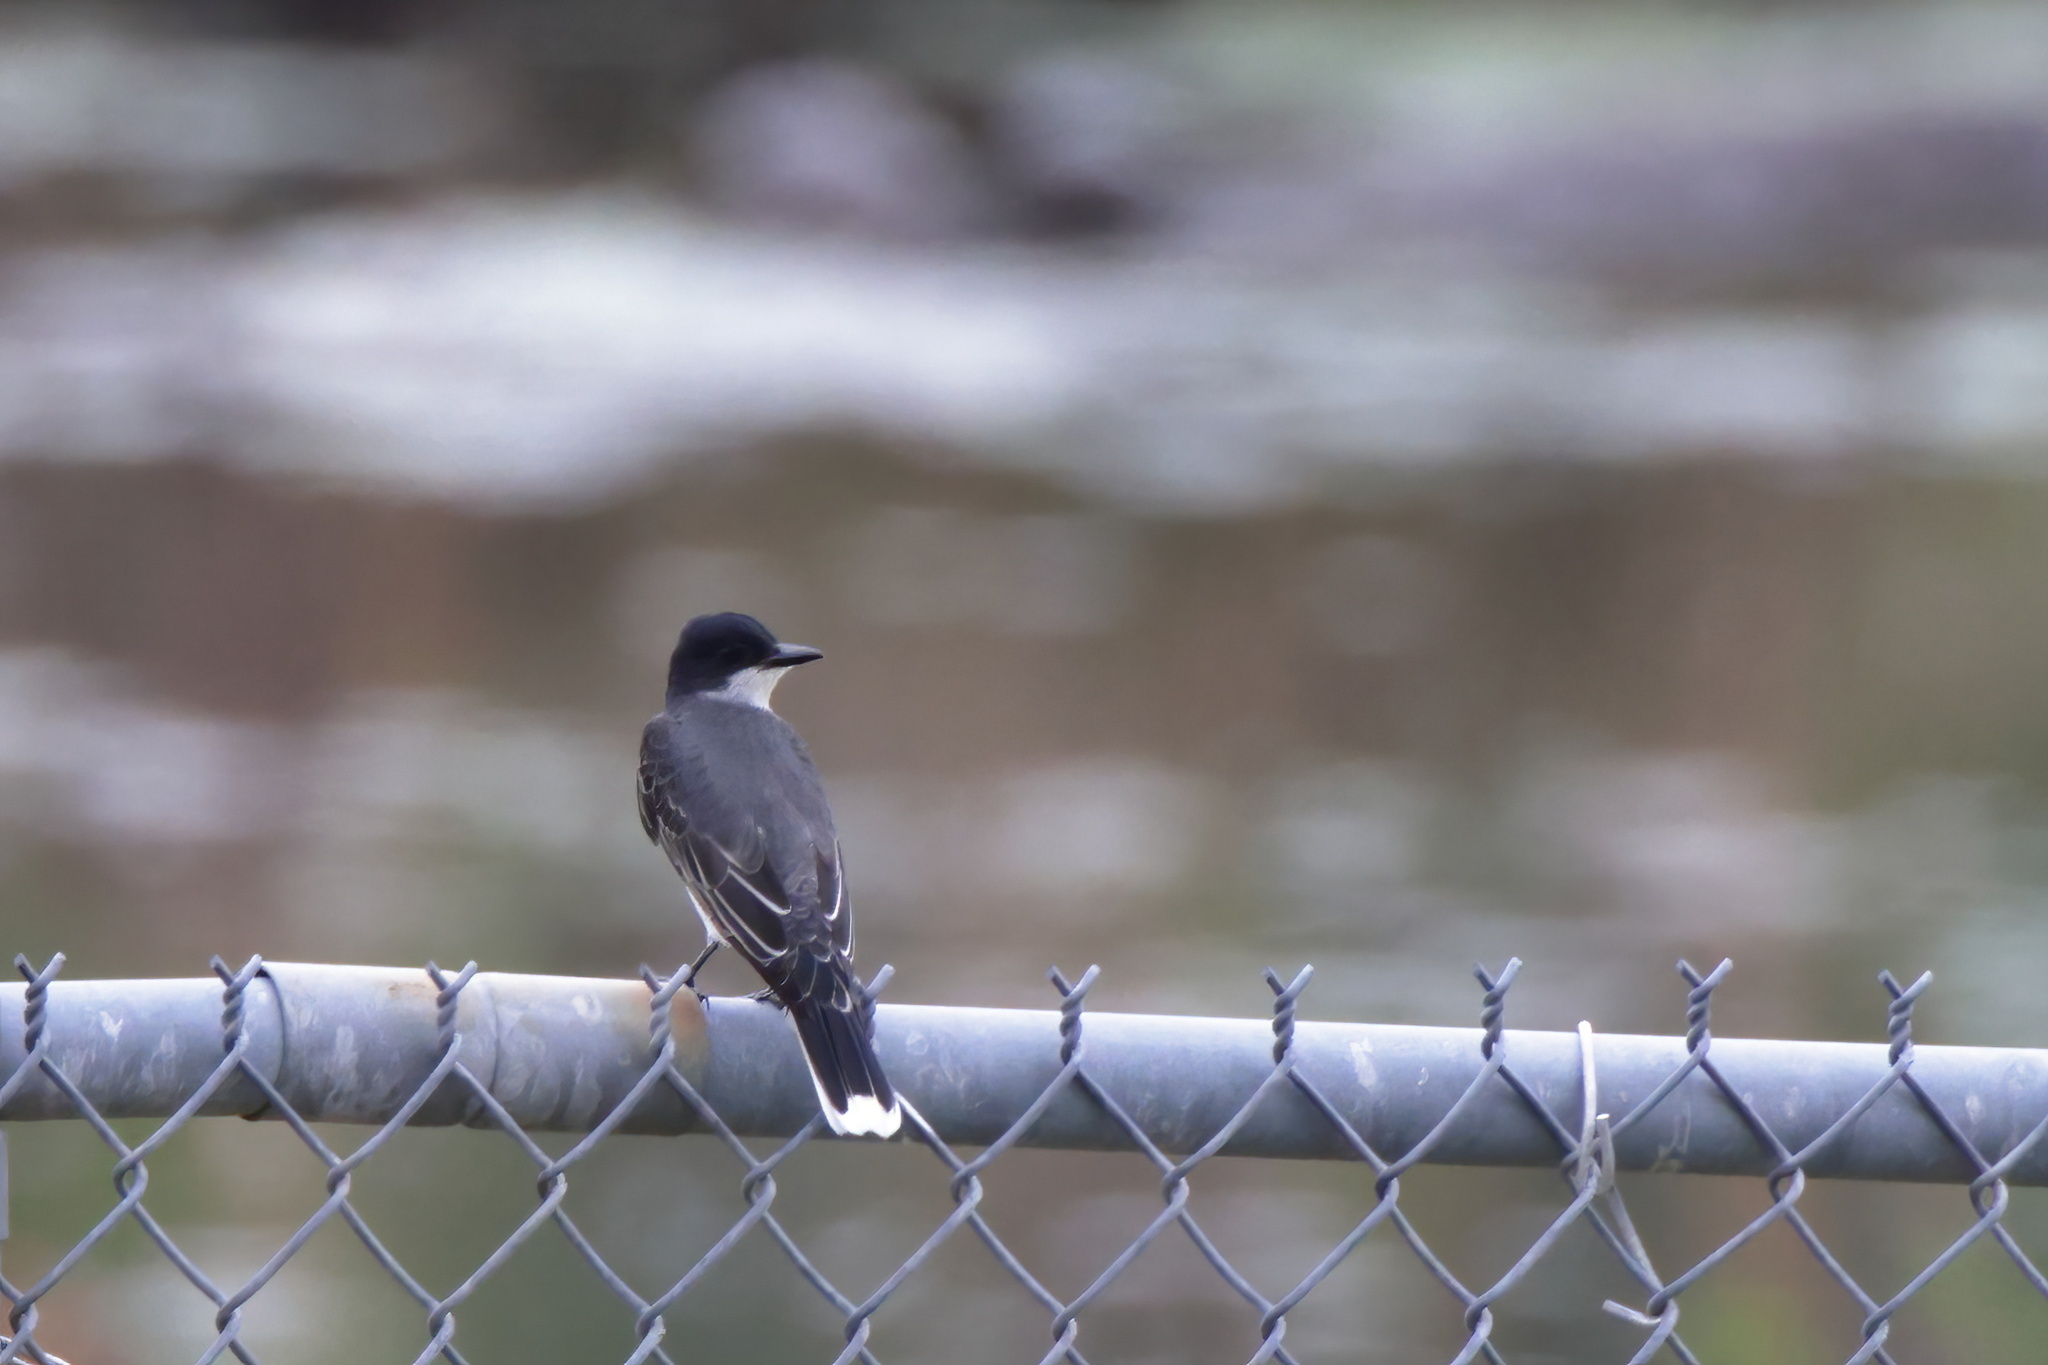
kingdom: Animalia
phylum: Chordata
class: Aves
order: Passeriformes
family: Tyrannidae
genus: Tyrannus
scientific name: Tyrannus tyrannus
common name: Eastern kingbird
